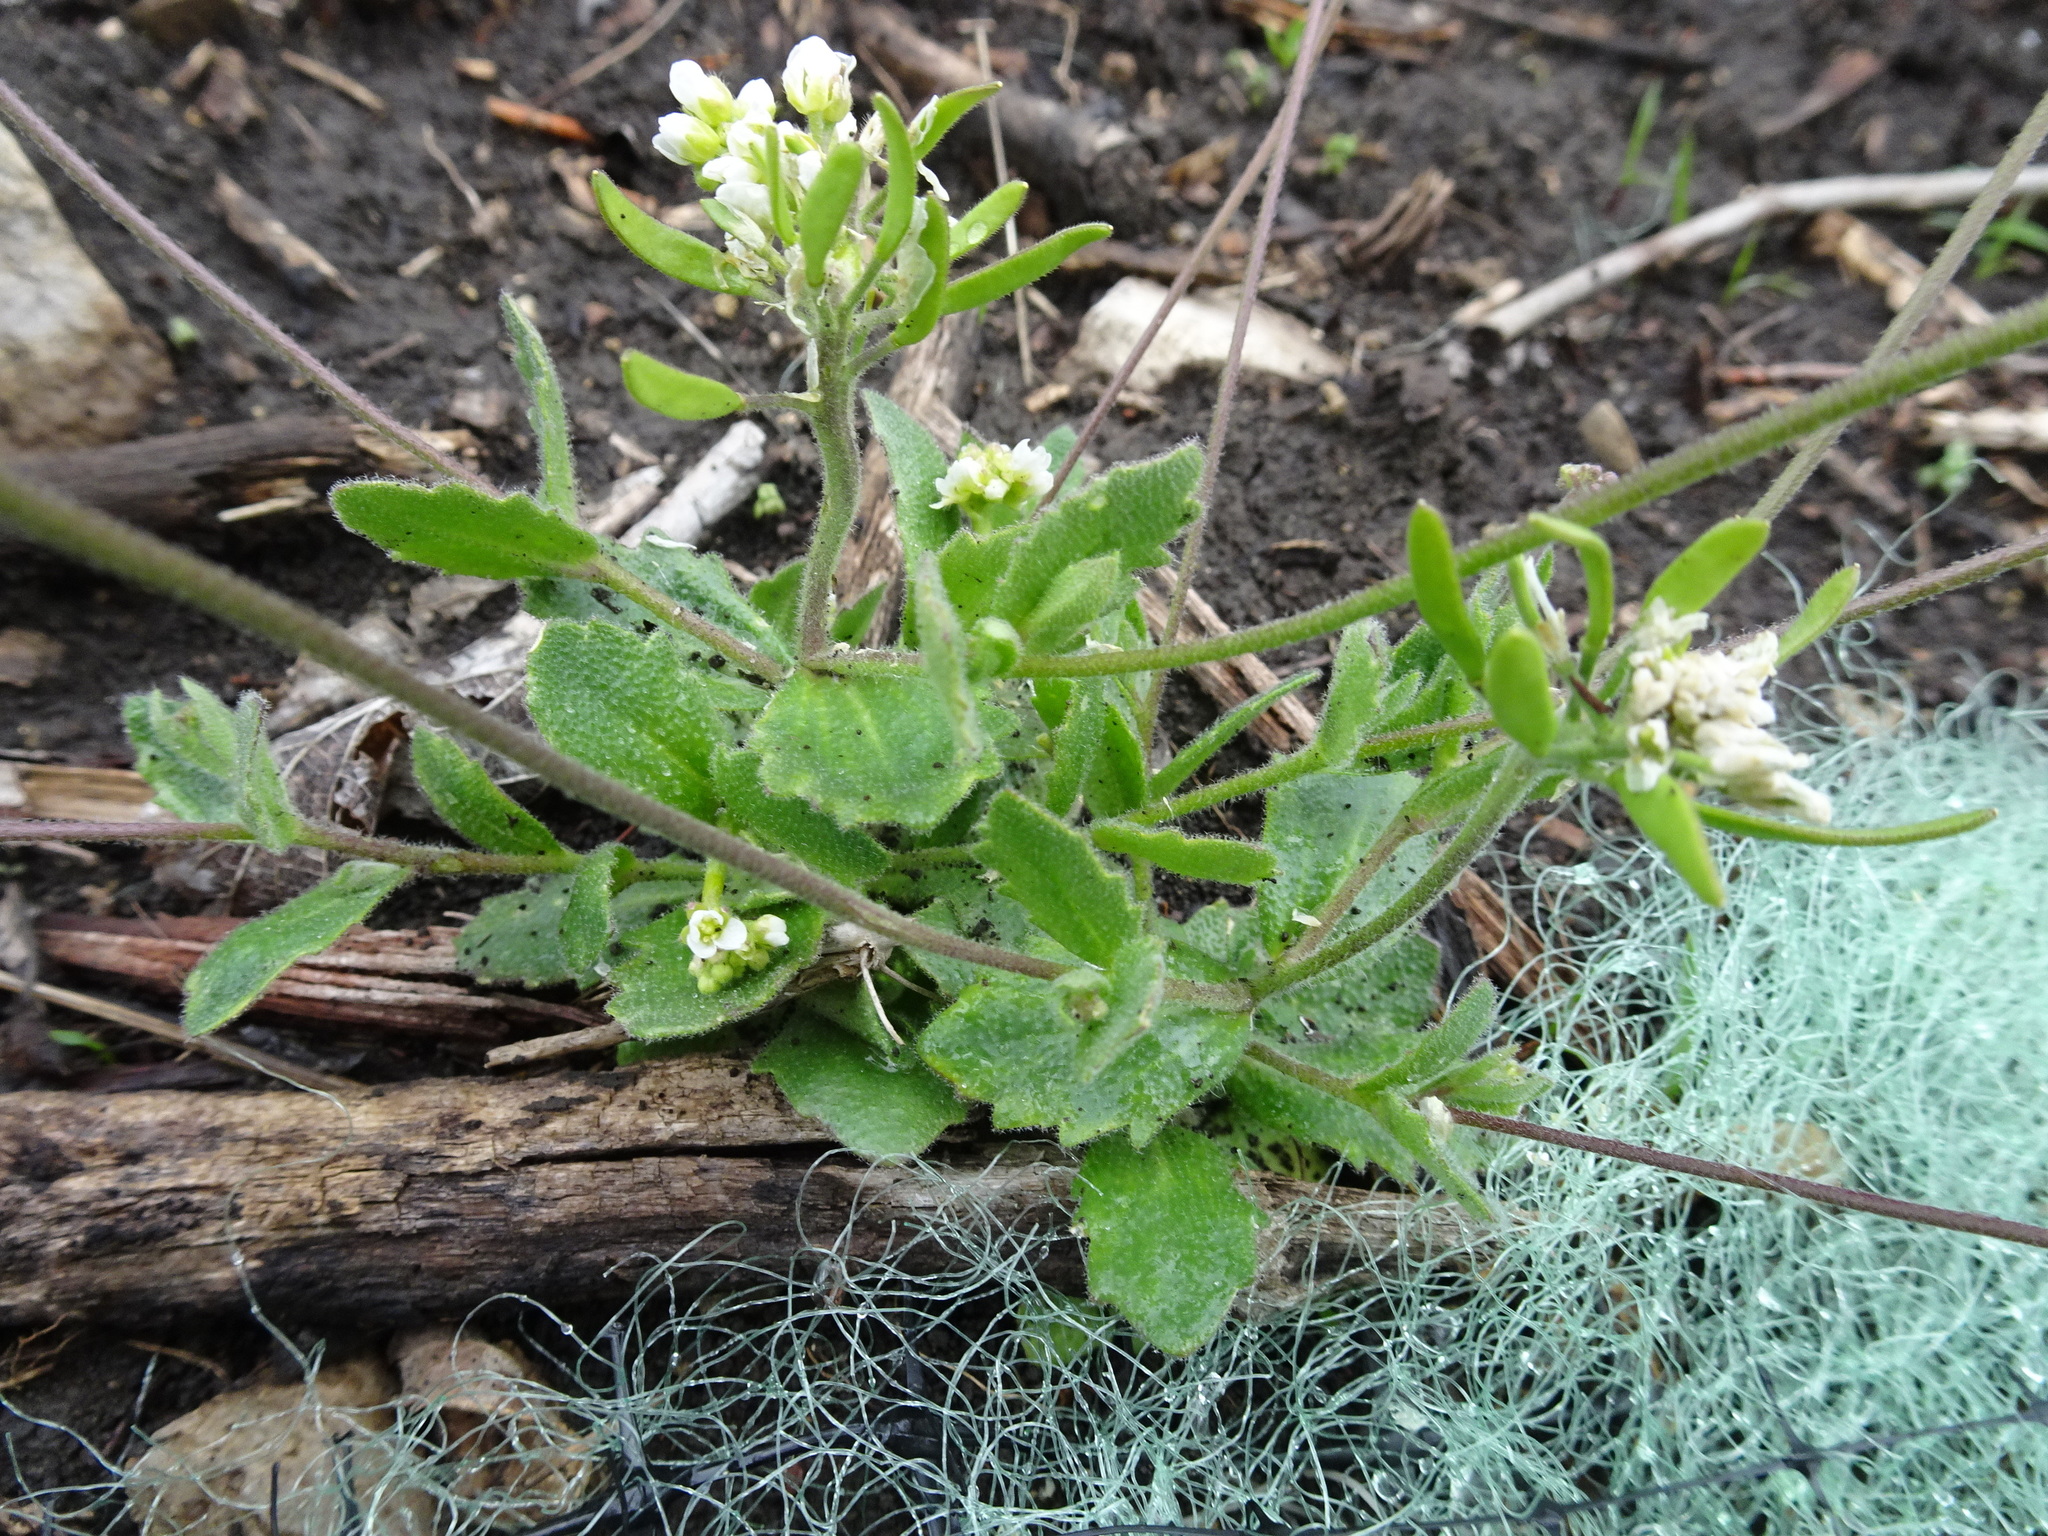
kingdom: Plantae
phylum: Tracheophyta
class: Magnoliopsida
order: Brassicales
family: Brassicaceae
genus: Tomostima
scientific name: Tomostima cuneifolia
